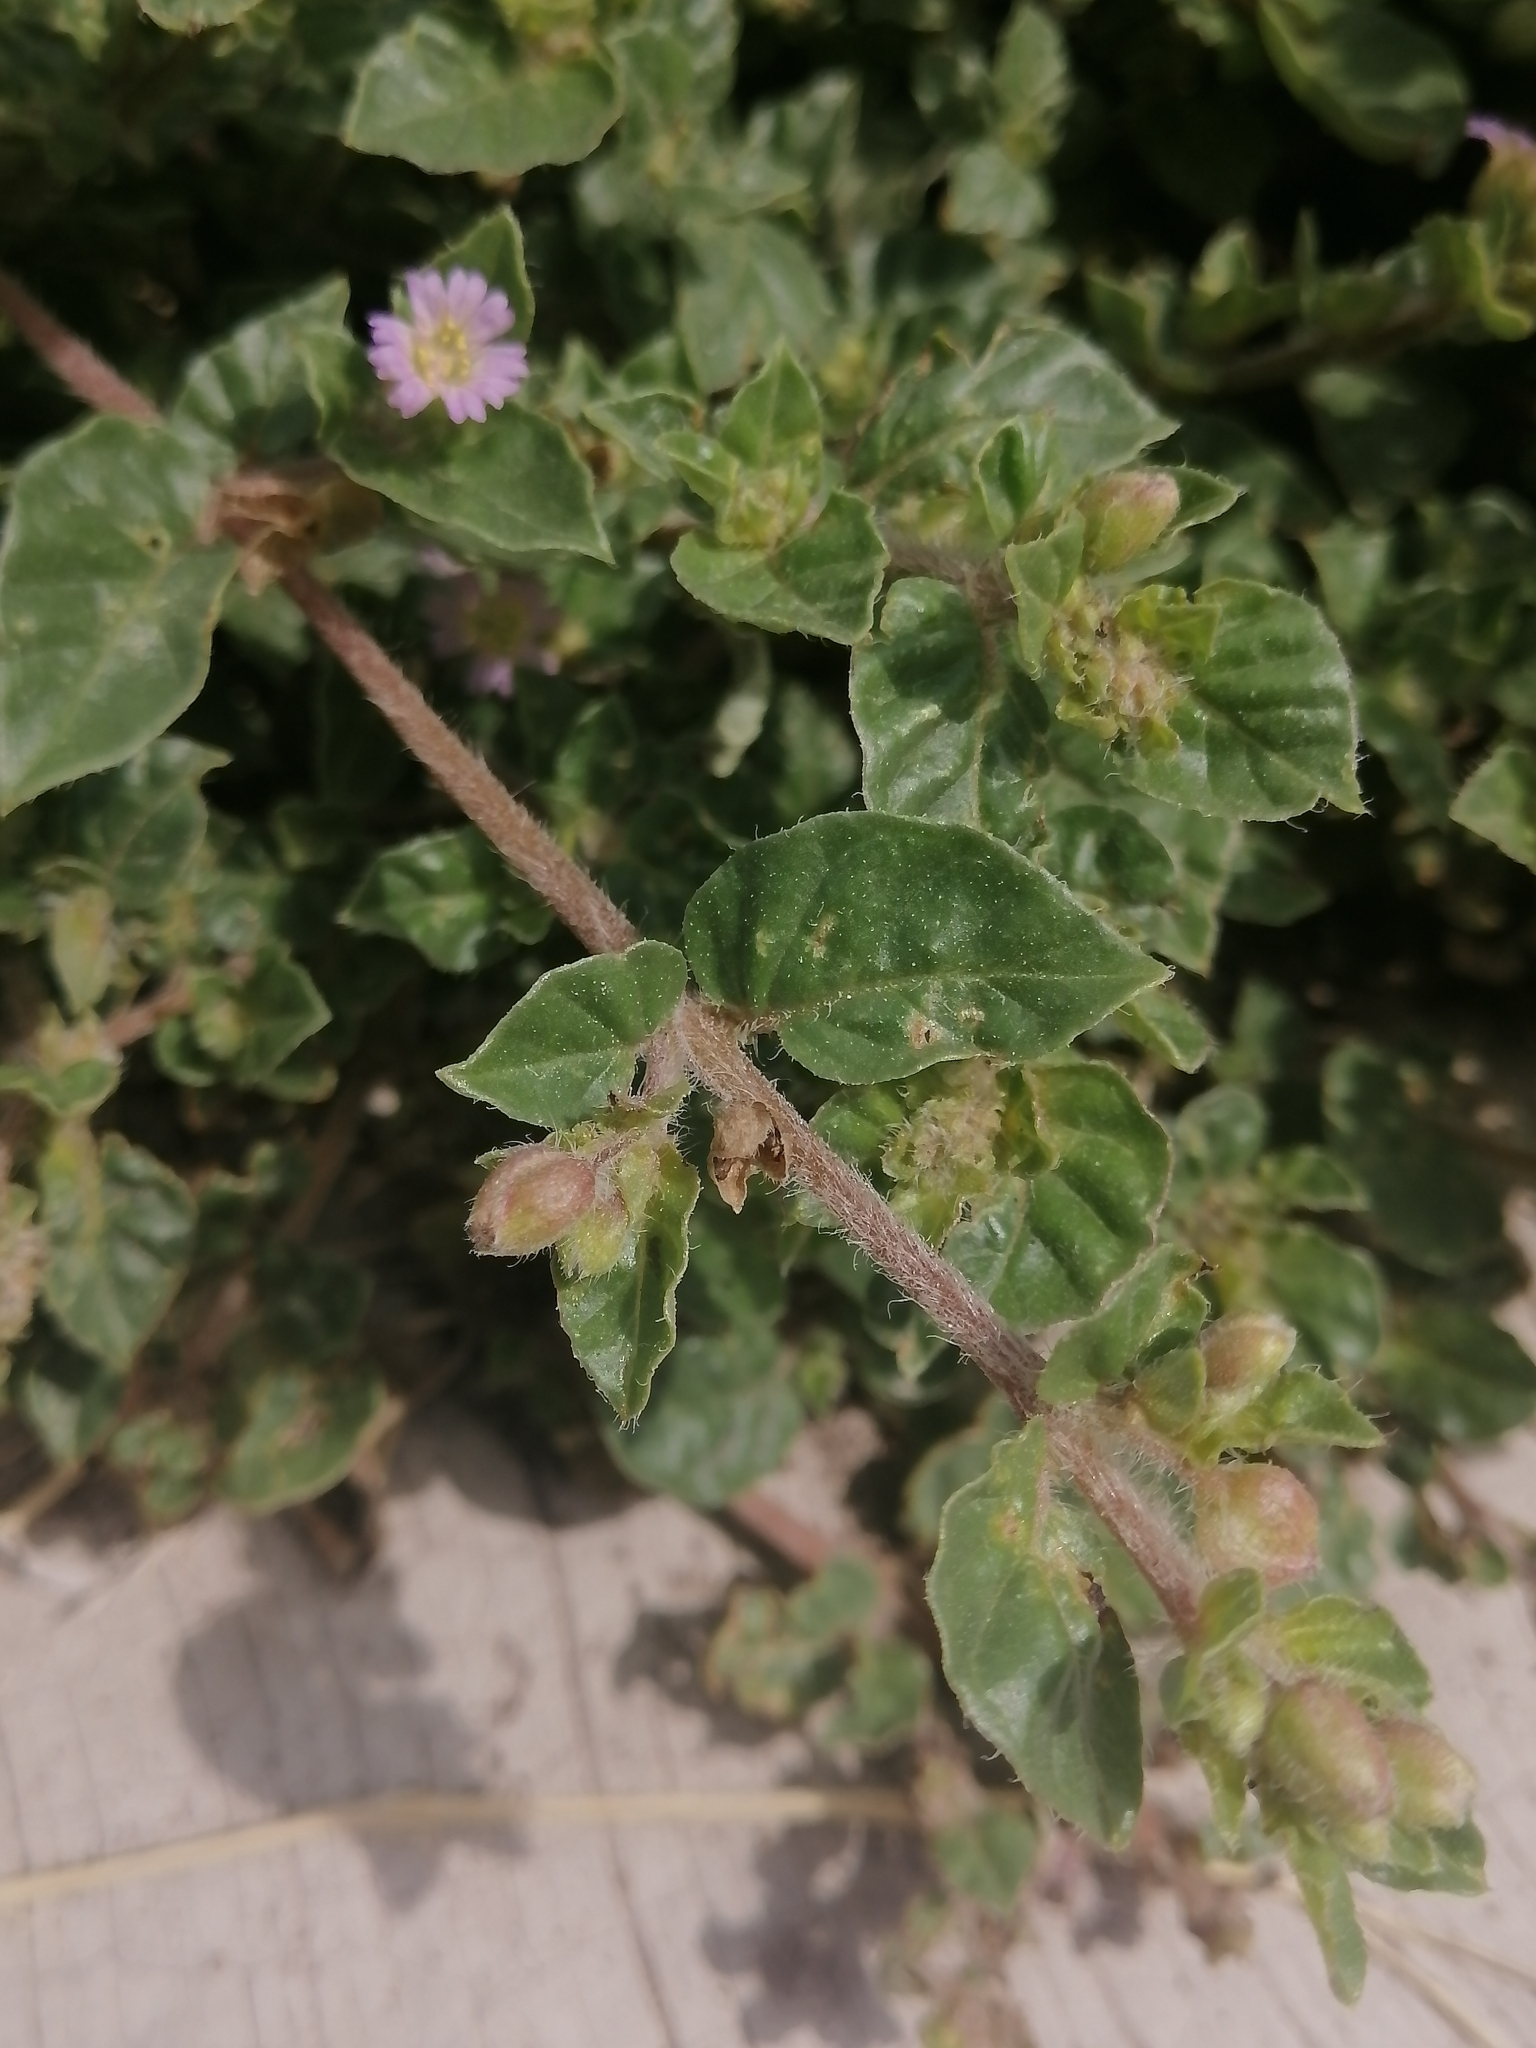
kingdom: Plantae
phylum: Tracheophyta
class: Magnoliopsida
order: Caryophyllales
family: Nyctaginaceae
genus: Allionia
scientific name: Allionia choisyi
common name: Trailing-four-o'clock
